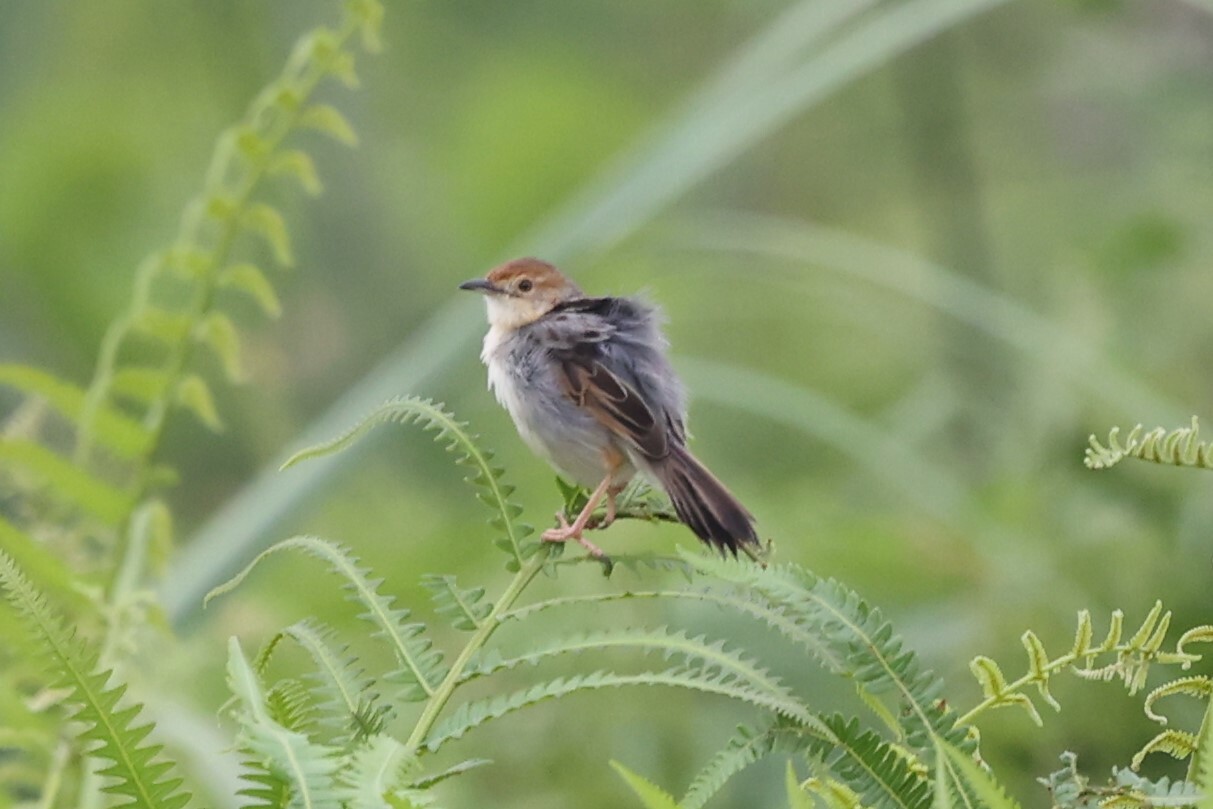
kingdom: Animalia
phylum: Chordata
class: Aves
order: Passeriformes
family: Cisticolidae
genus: Cisticola
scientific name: Cisticola marginatus
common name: Winding cisticola
